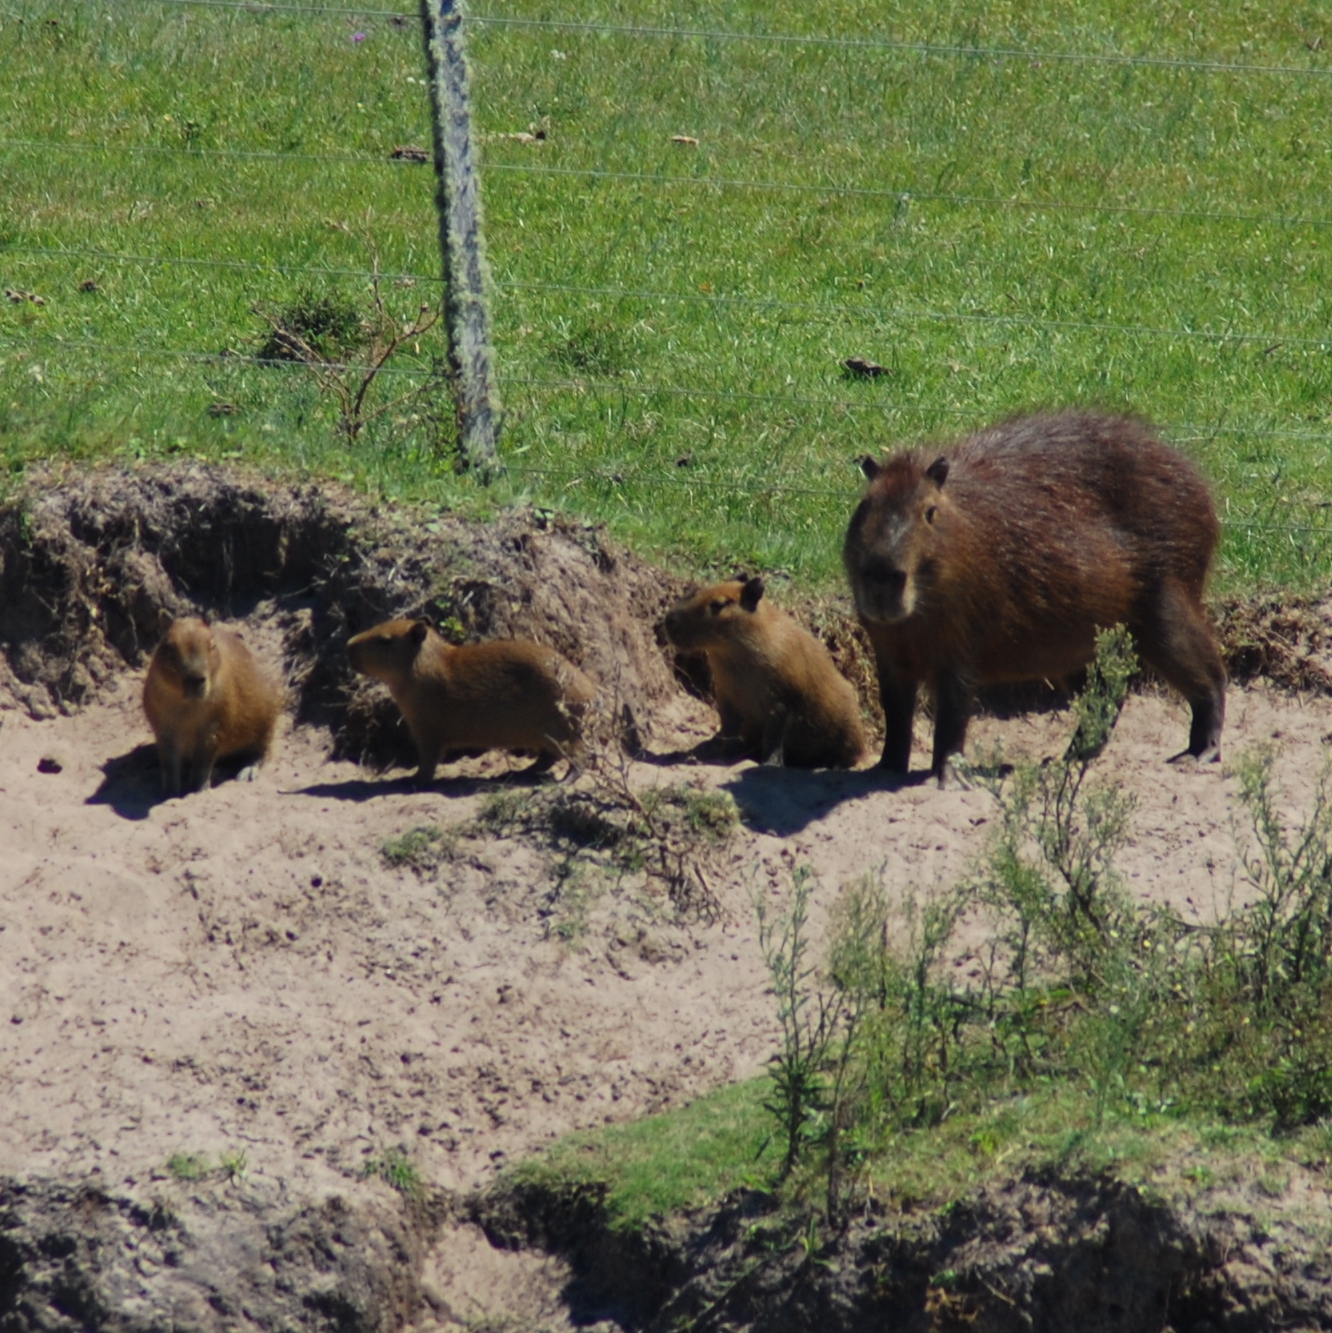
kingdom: Animalia
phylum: Chordata
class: Mammalia
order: Rodentia
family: Caviidae
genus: Hydrochoerus
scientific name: Hydrochoerus hydrochaeris
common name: Capybara
